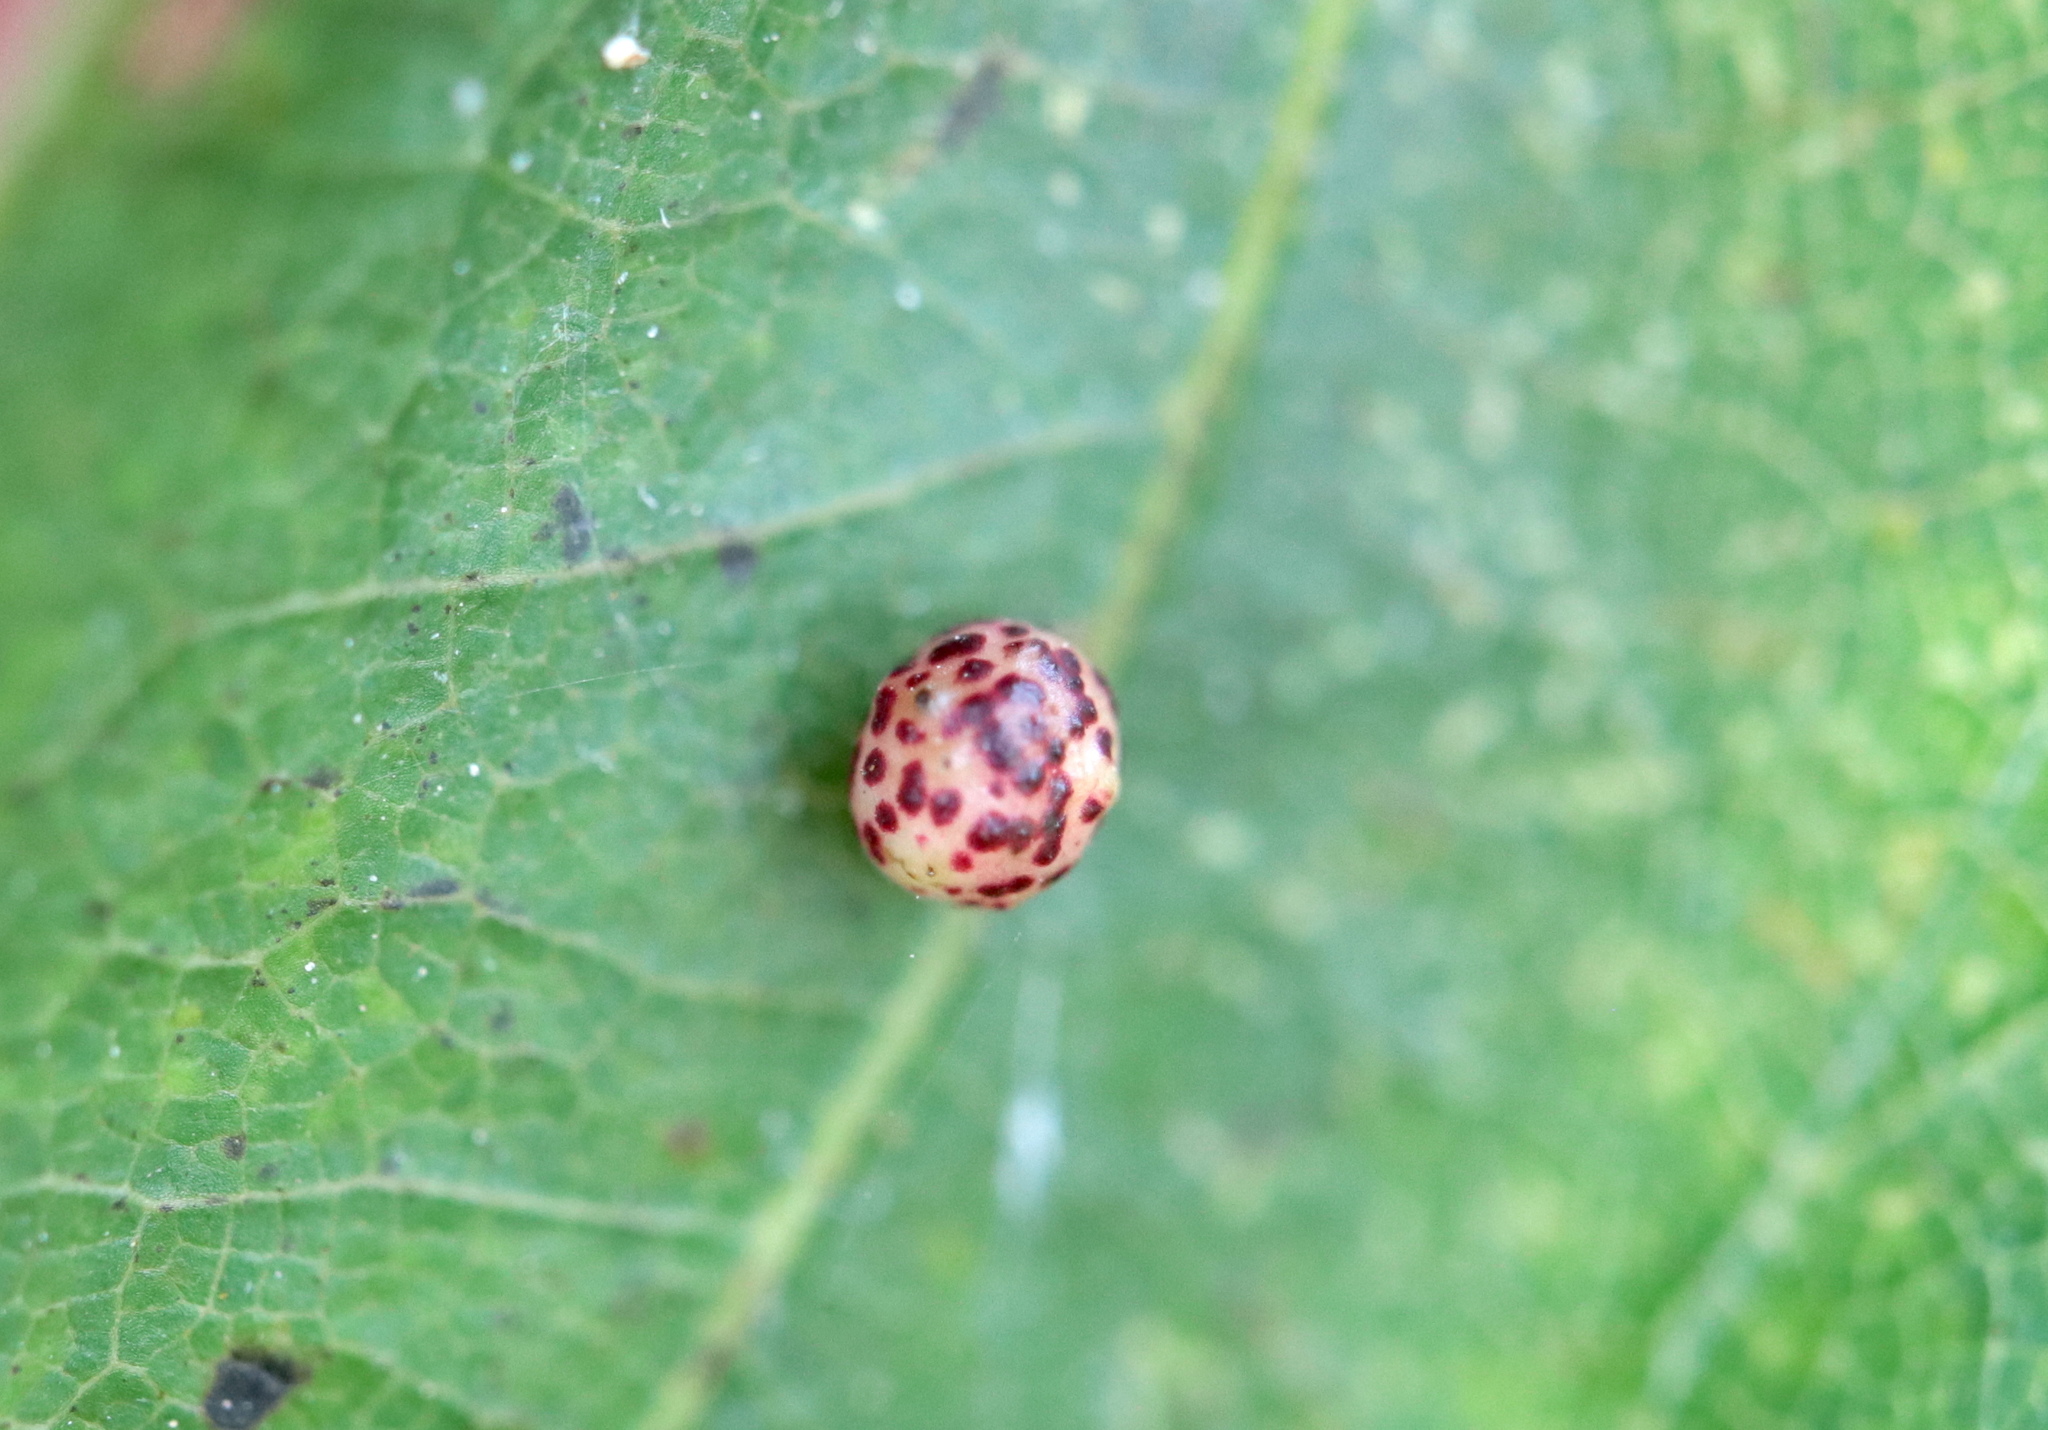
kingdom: Animalia
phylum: Arthropoda
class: Insecta
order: Hymenoptera
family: Cynipidae
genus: Zopheroteras
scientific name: Zopheroteras
